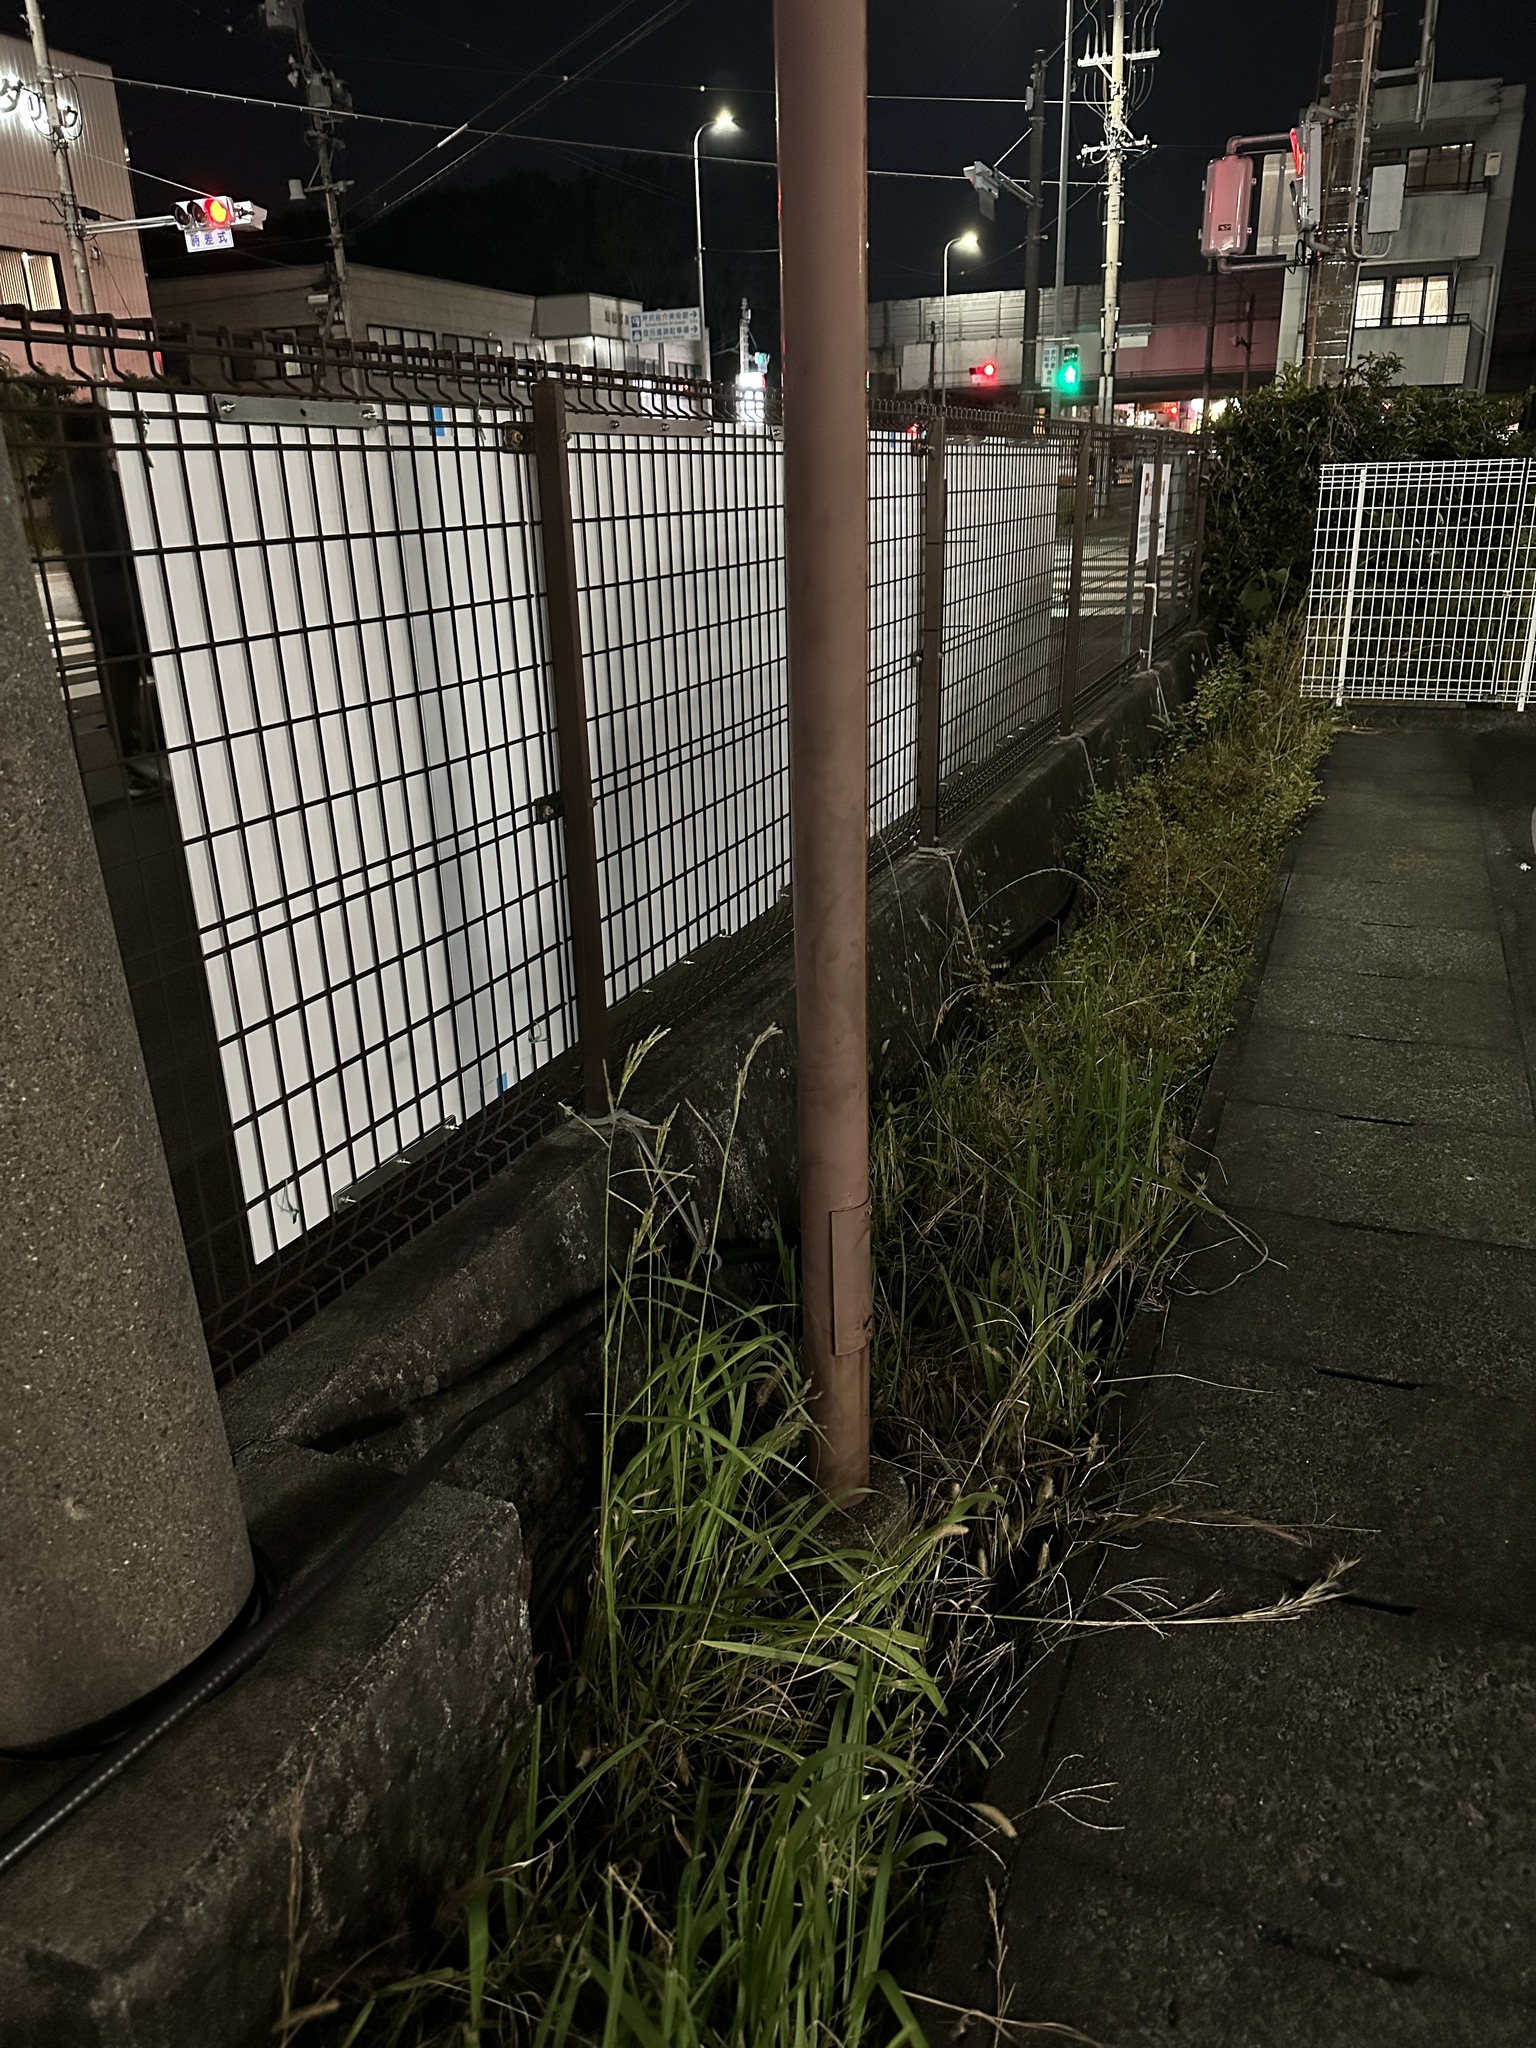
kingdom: Animalia
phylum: Arthropoda
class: Insecta
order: Orthoptera
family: Gryllidae
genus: Teleogryllus
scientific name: Teleogryllus emma
